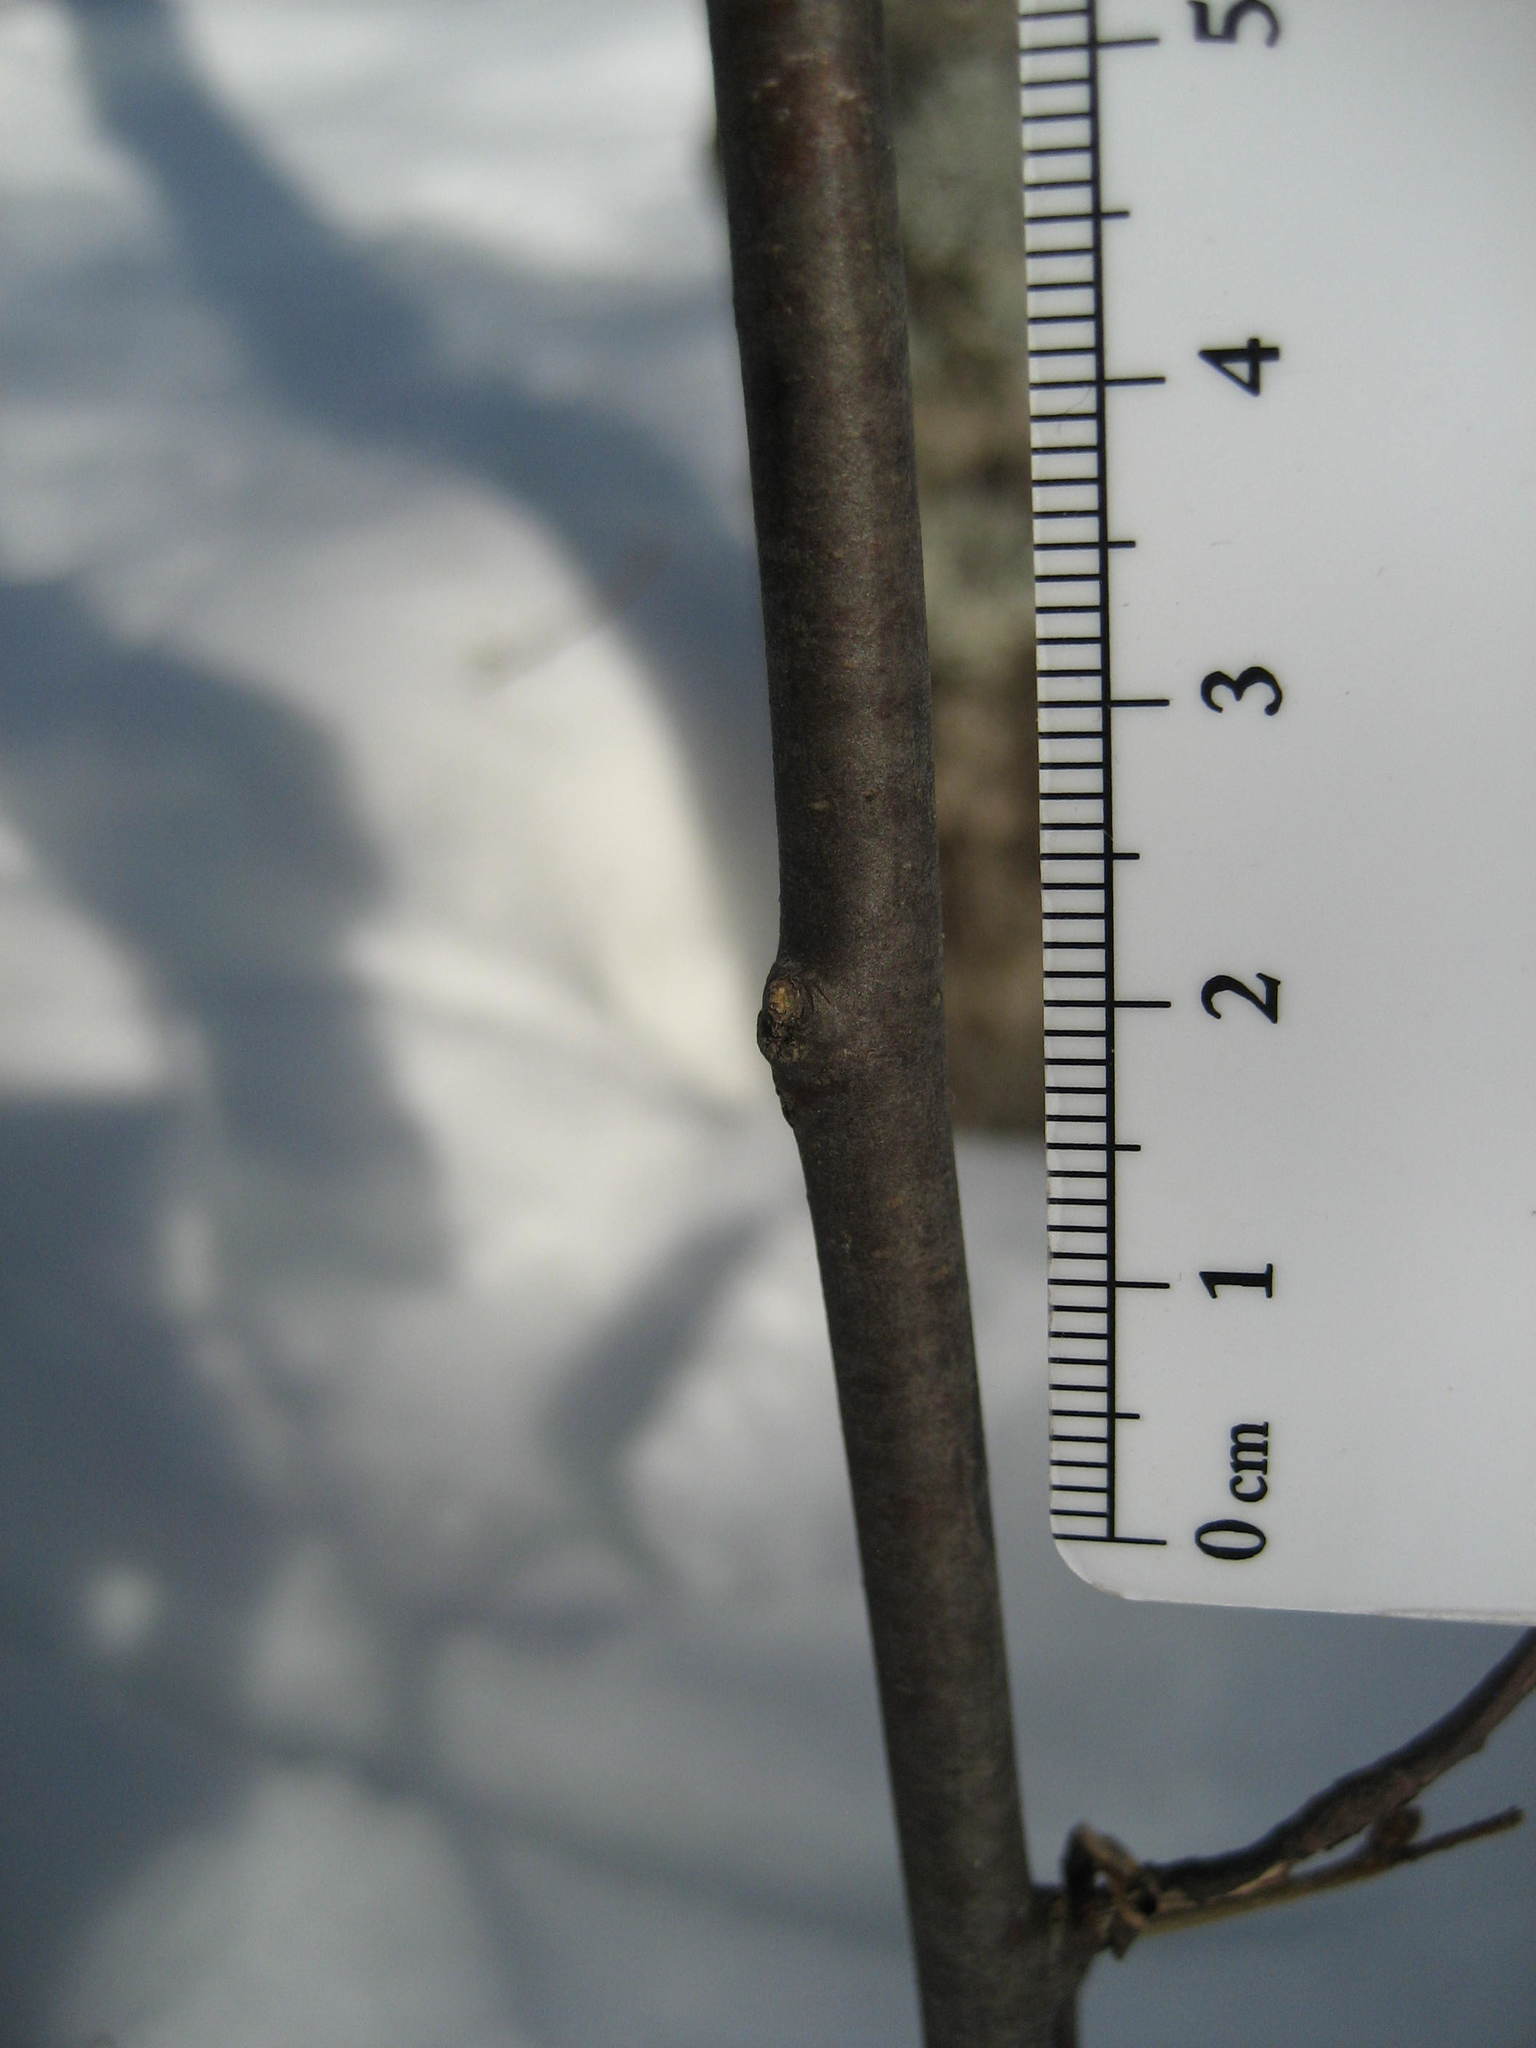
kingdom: Plantae
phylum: Tracheophyta
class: Magnoliopsida
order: Fagales
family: Betulaceae
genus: Ostrya
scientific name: Ostrya virginiana
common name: Ironwood
